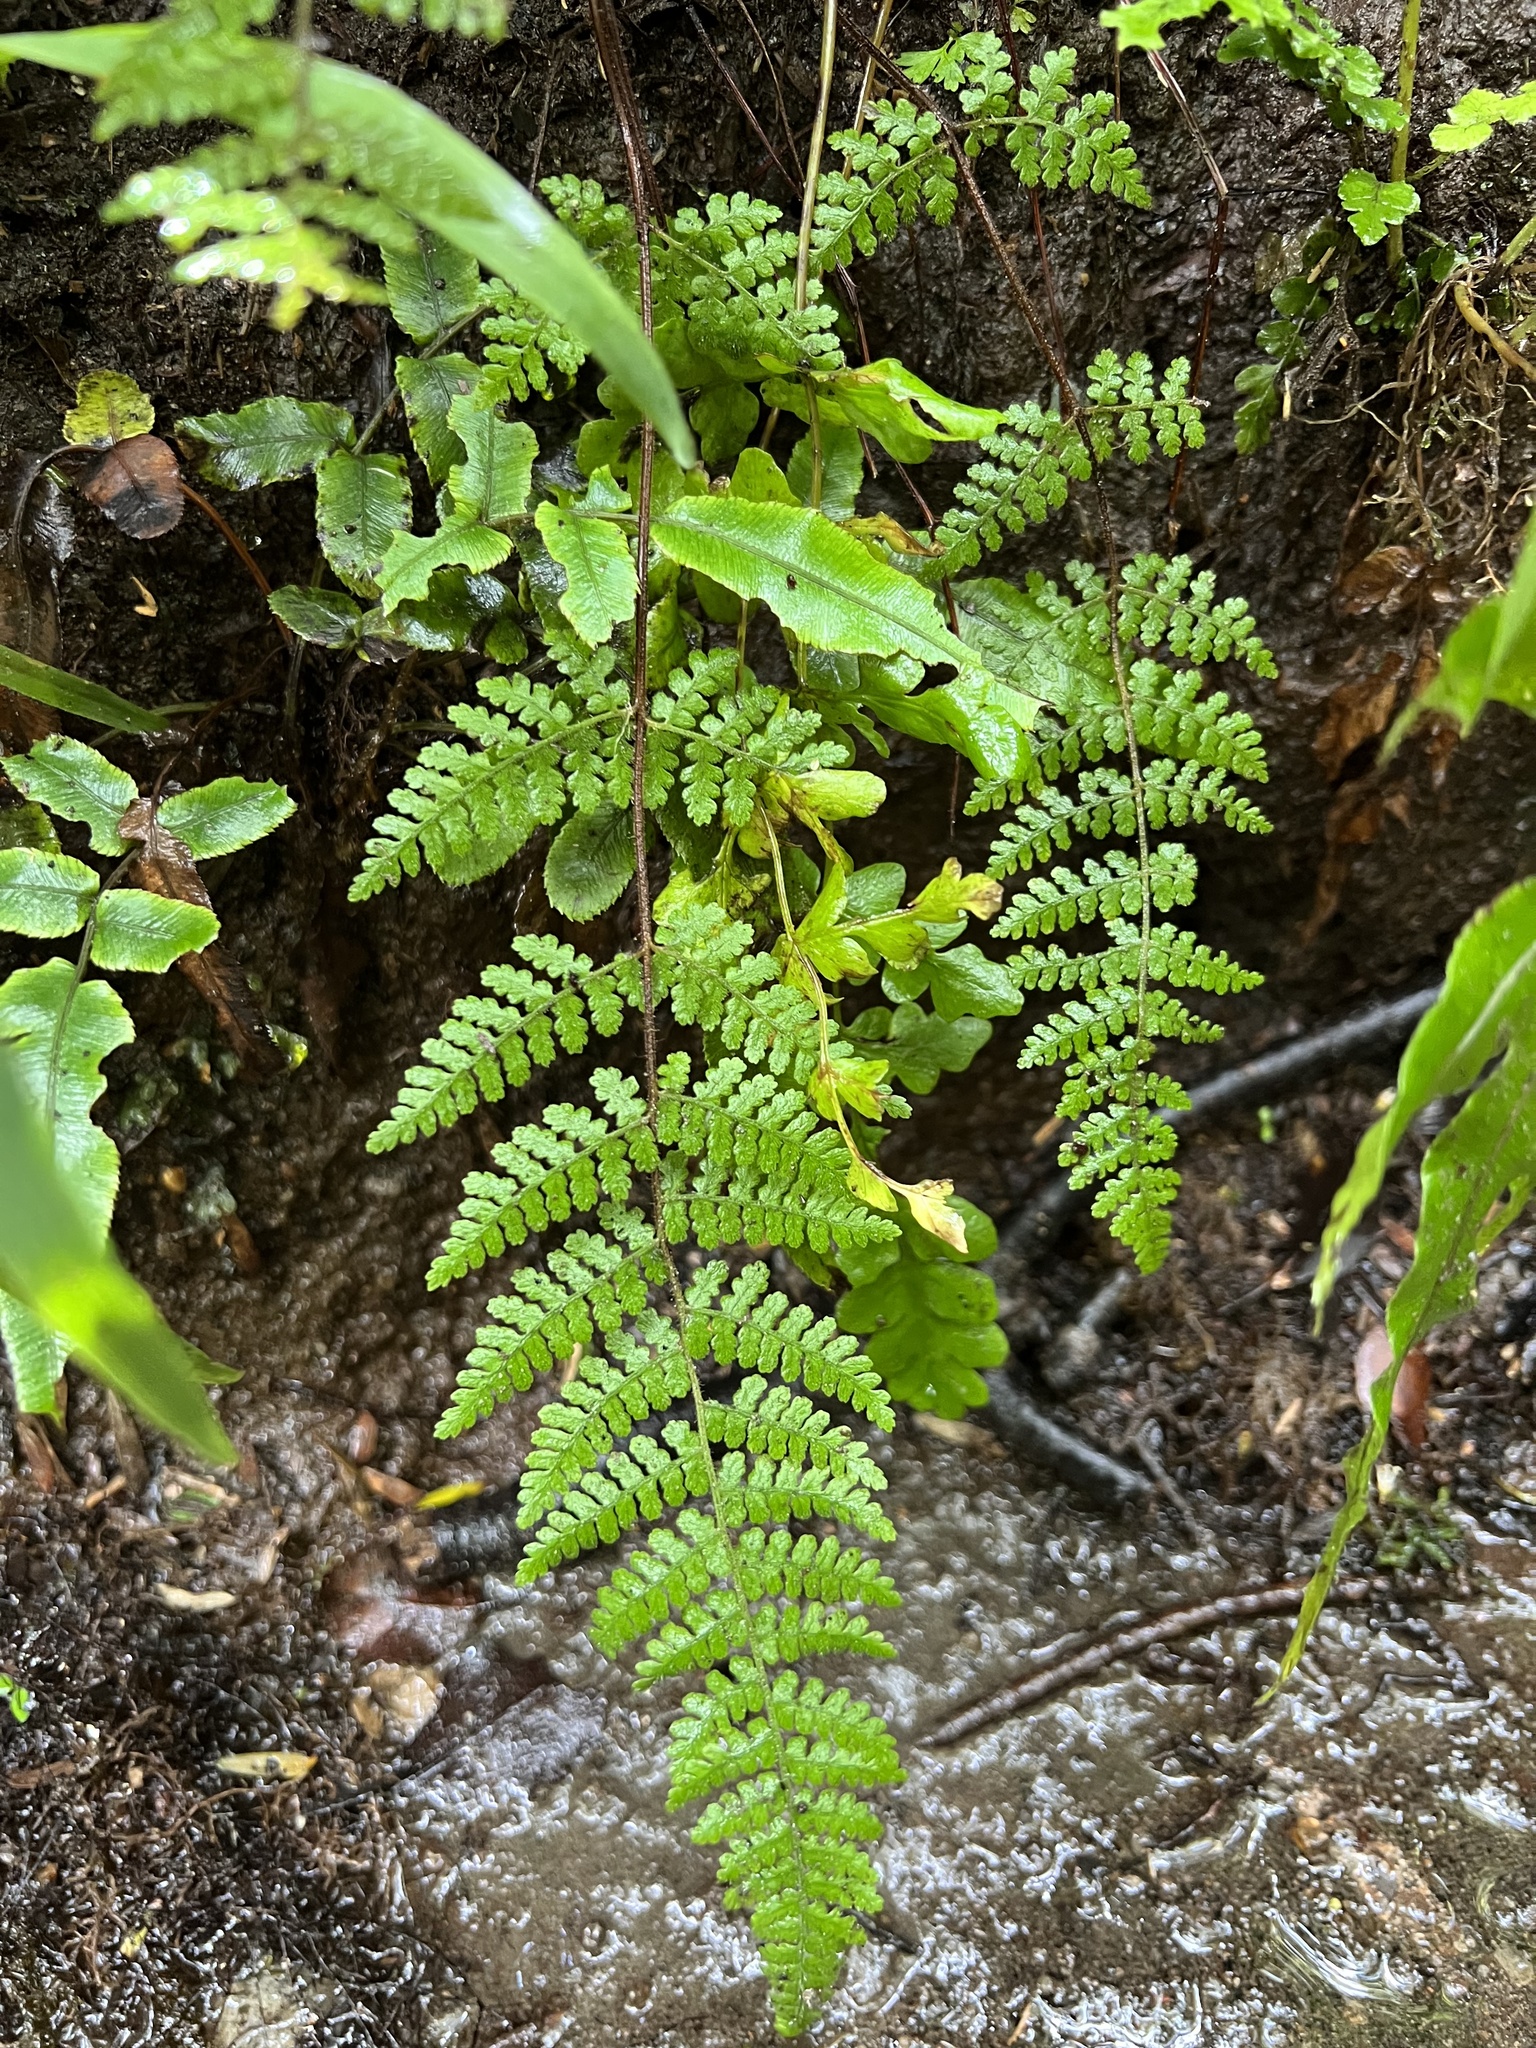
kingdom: Plantae
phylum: Tracheophyta
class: Polypodiopsida
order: Polypodiales
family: Dennstaedtiaceae
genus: Hypolepis
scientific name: Hypolepis rugosula
